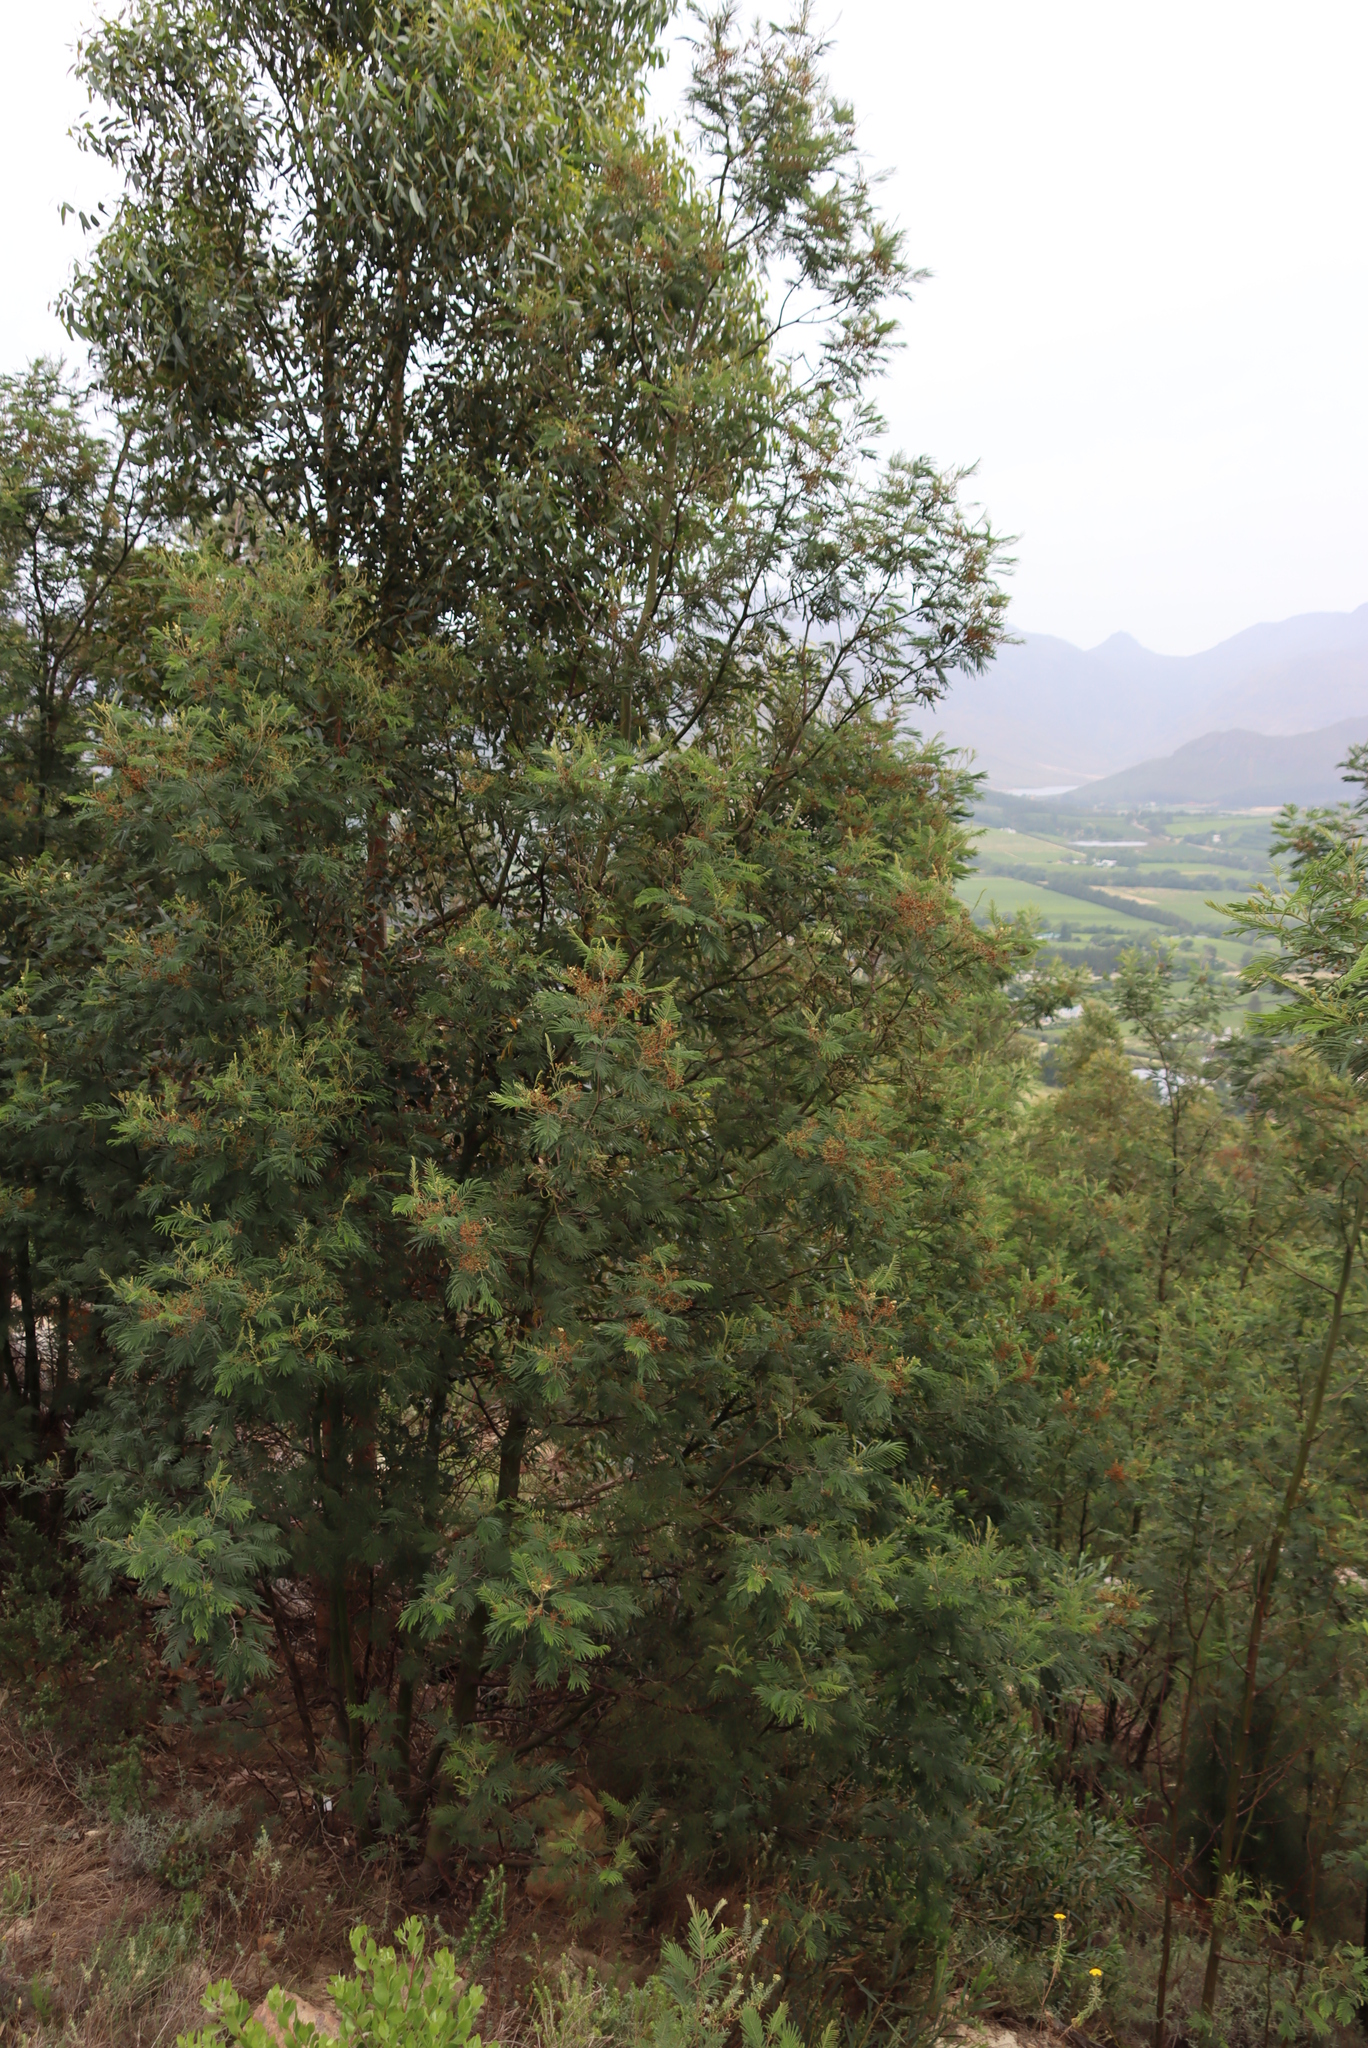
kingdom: Animalia
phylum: Arthropoda
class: Insecta
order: Diptera
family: Cecidomyiidae
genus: Dasineura
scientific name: Dasineura rubiformis
